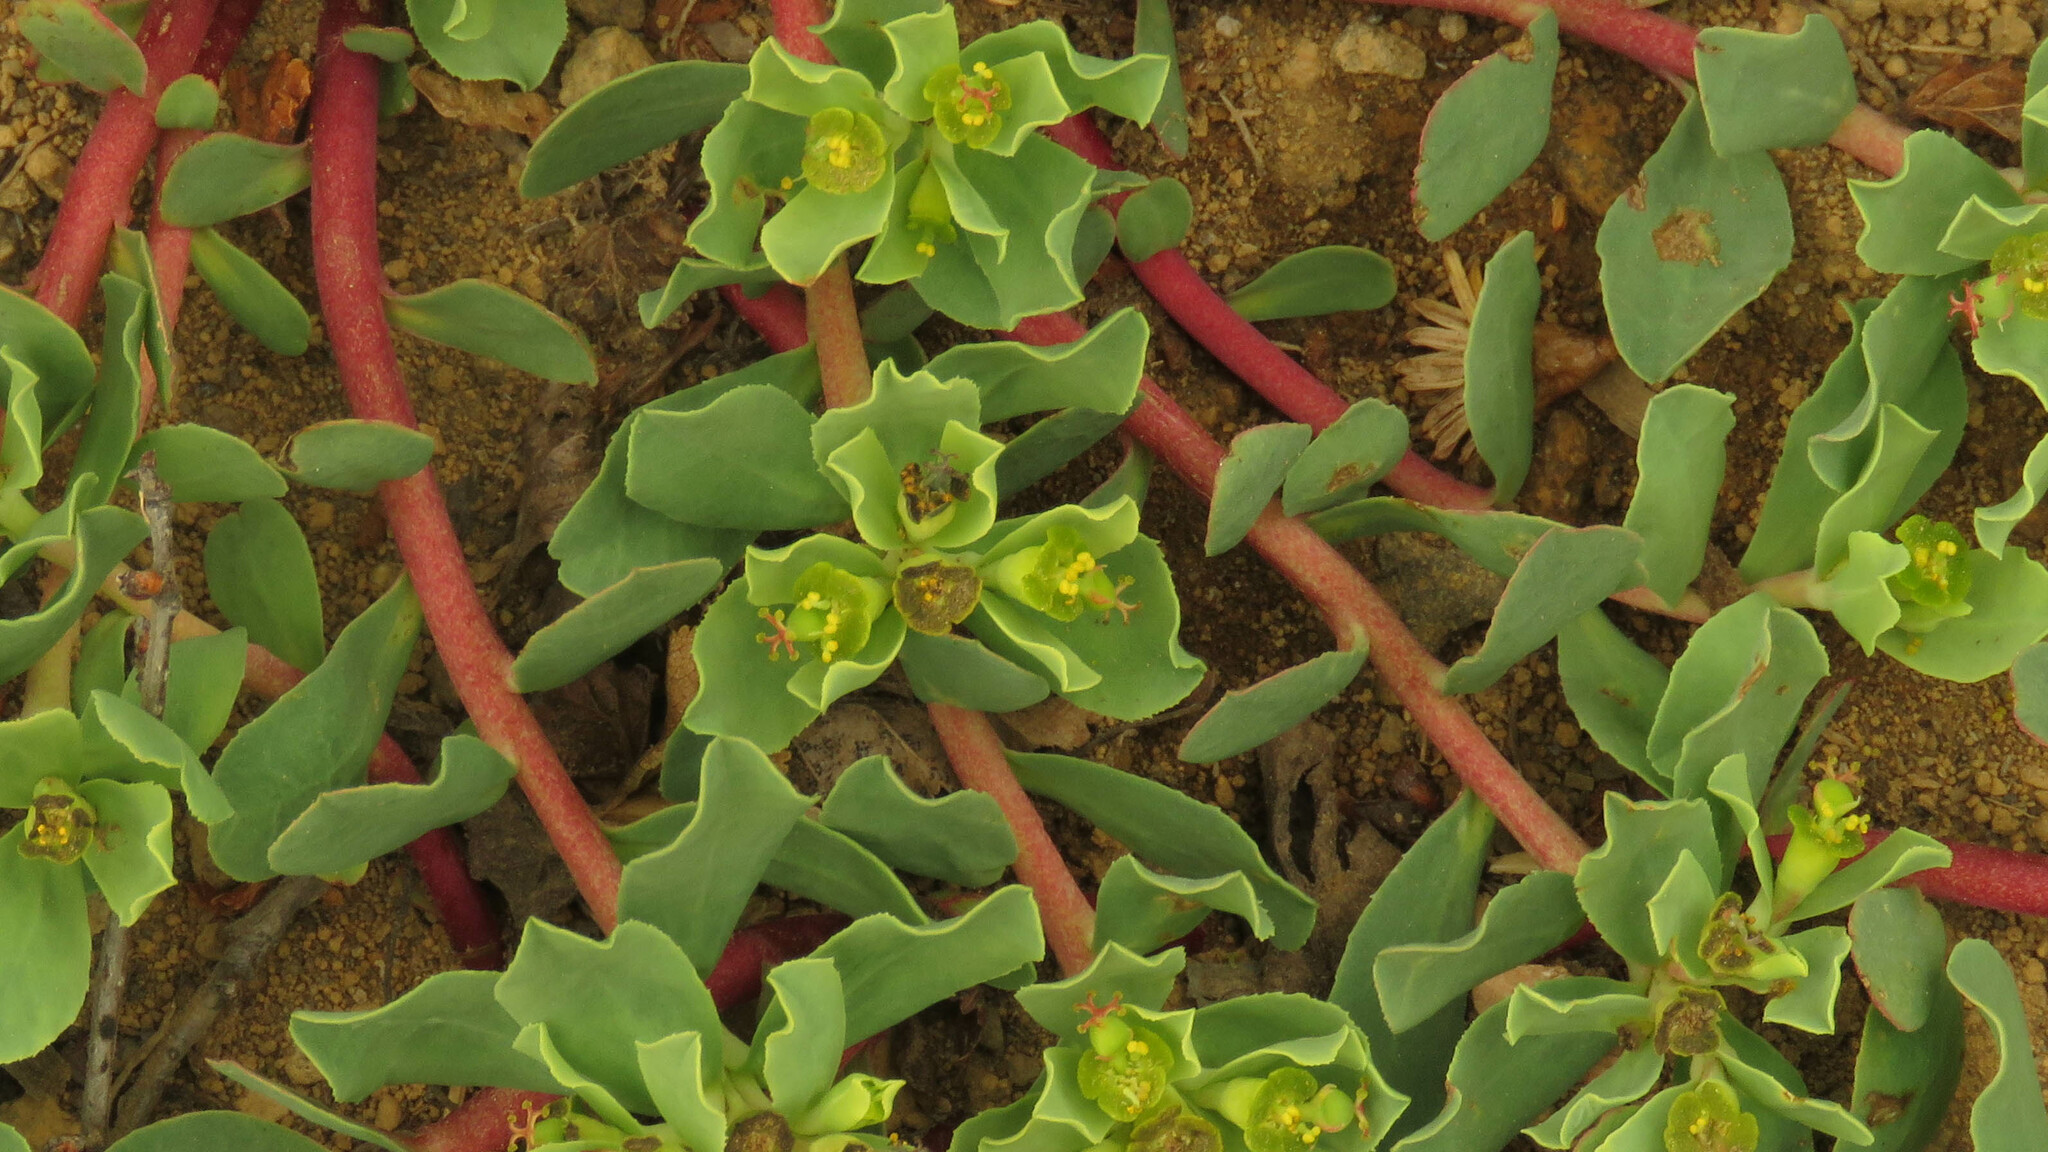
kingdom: Plantae
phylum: Tracheophyta
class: Magnoliopsida
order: Malpighiales
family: Euphorbiaceae
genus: Euphorbia
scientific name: Euphorbia collina
